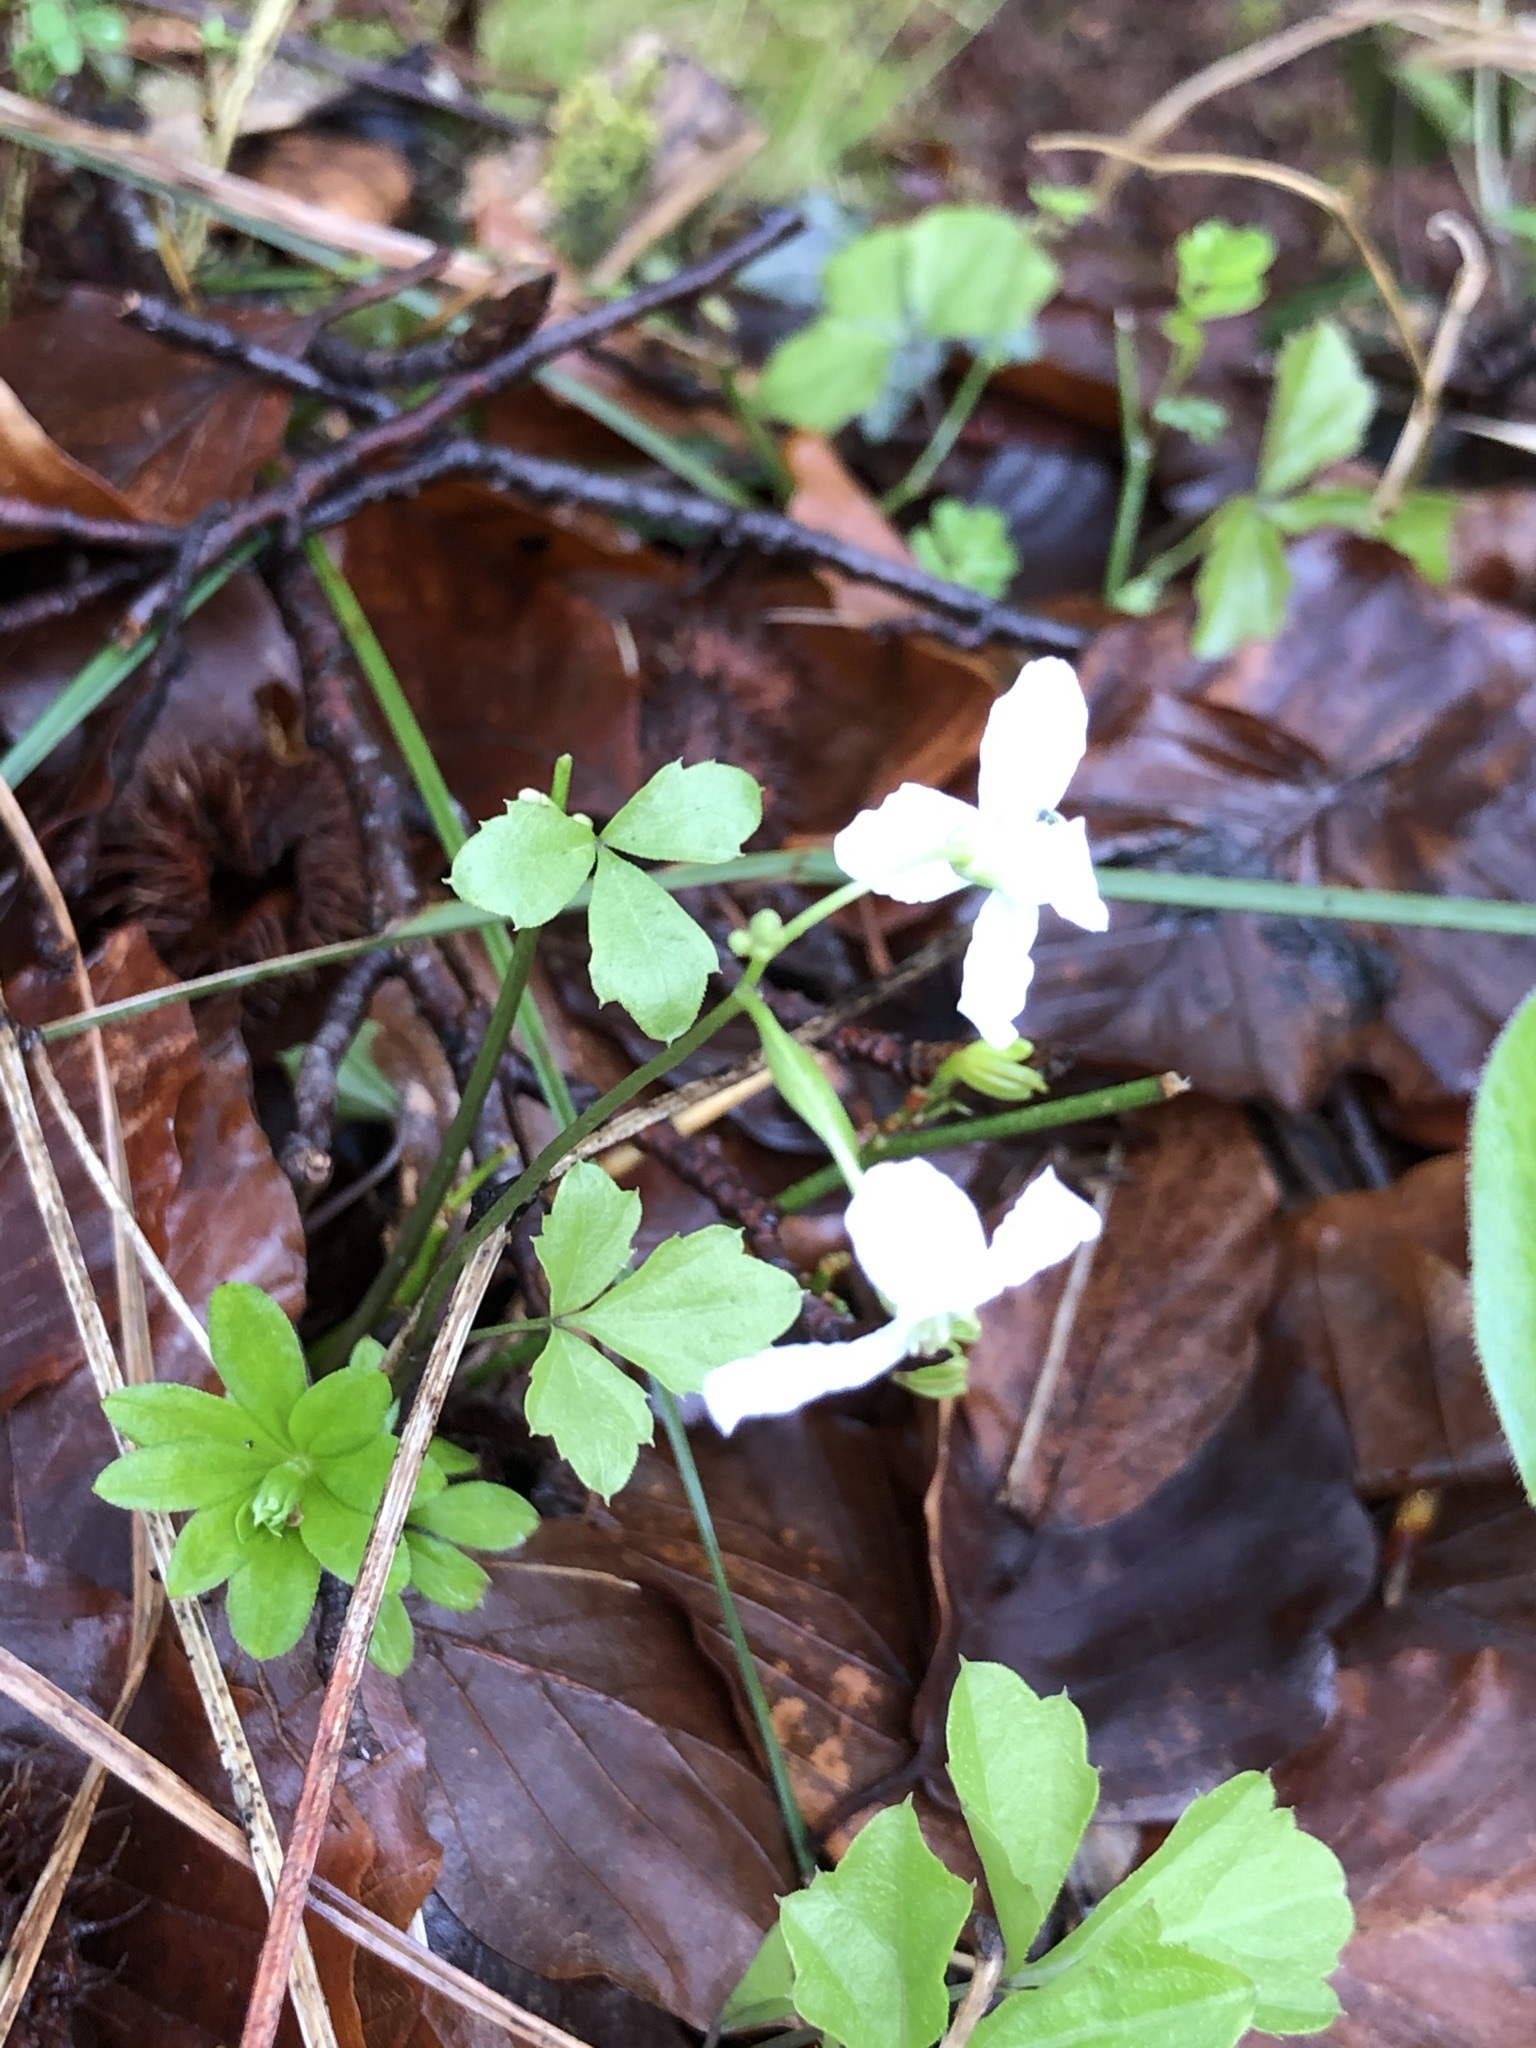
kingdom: Plantae
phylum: Tracheophyta
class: Magnoliopsida
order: Brassicales
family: Brassicaceae
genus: Cardamine
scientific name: Cardamine trifolia
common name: Trefoil cress
